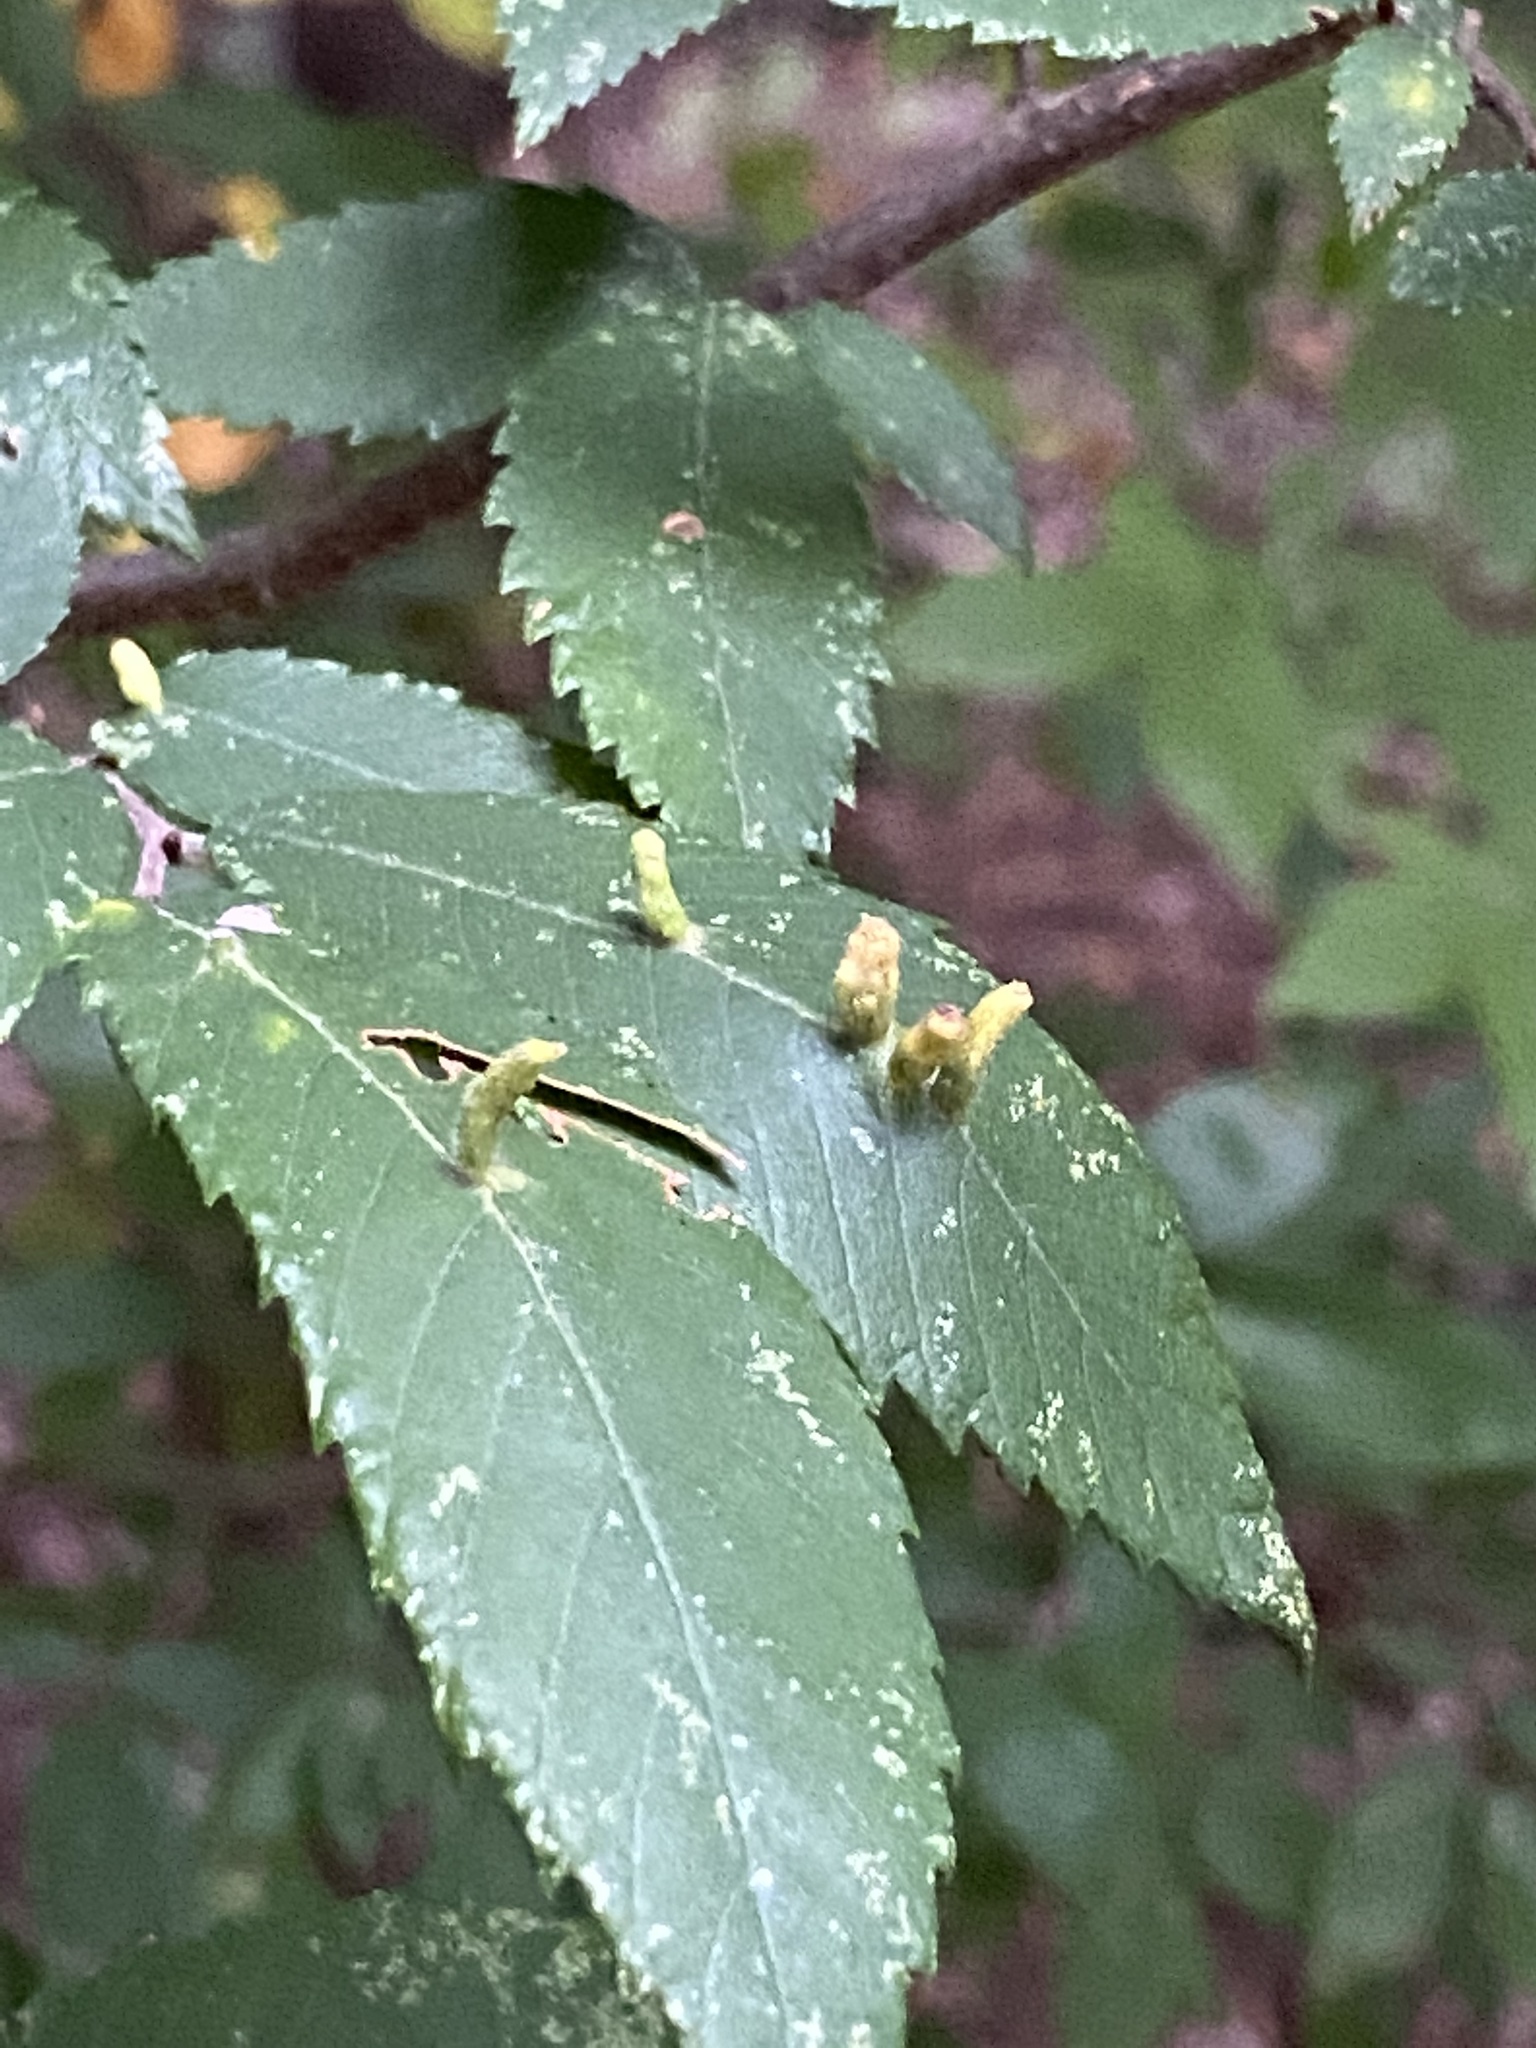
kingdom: Animalia
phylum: Arthropoda
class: Arachnida
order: Trombidiformes
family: Eriophyidae
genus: Aceria
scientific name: Aceria
